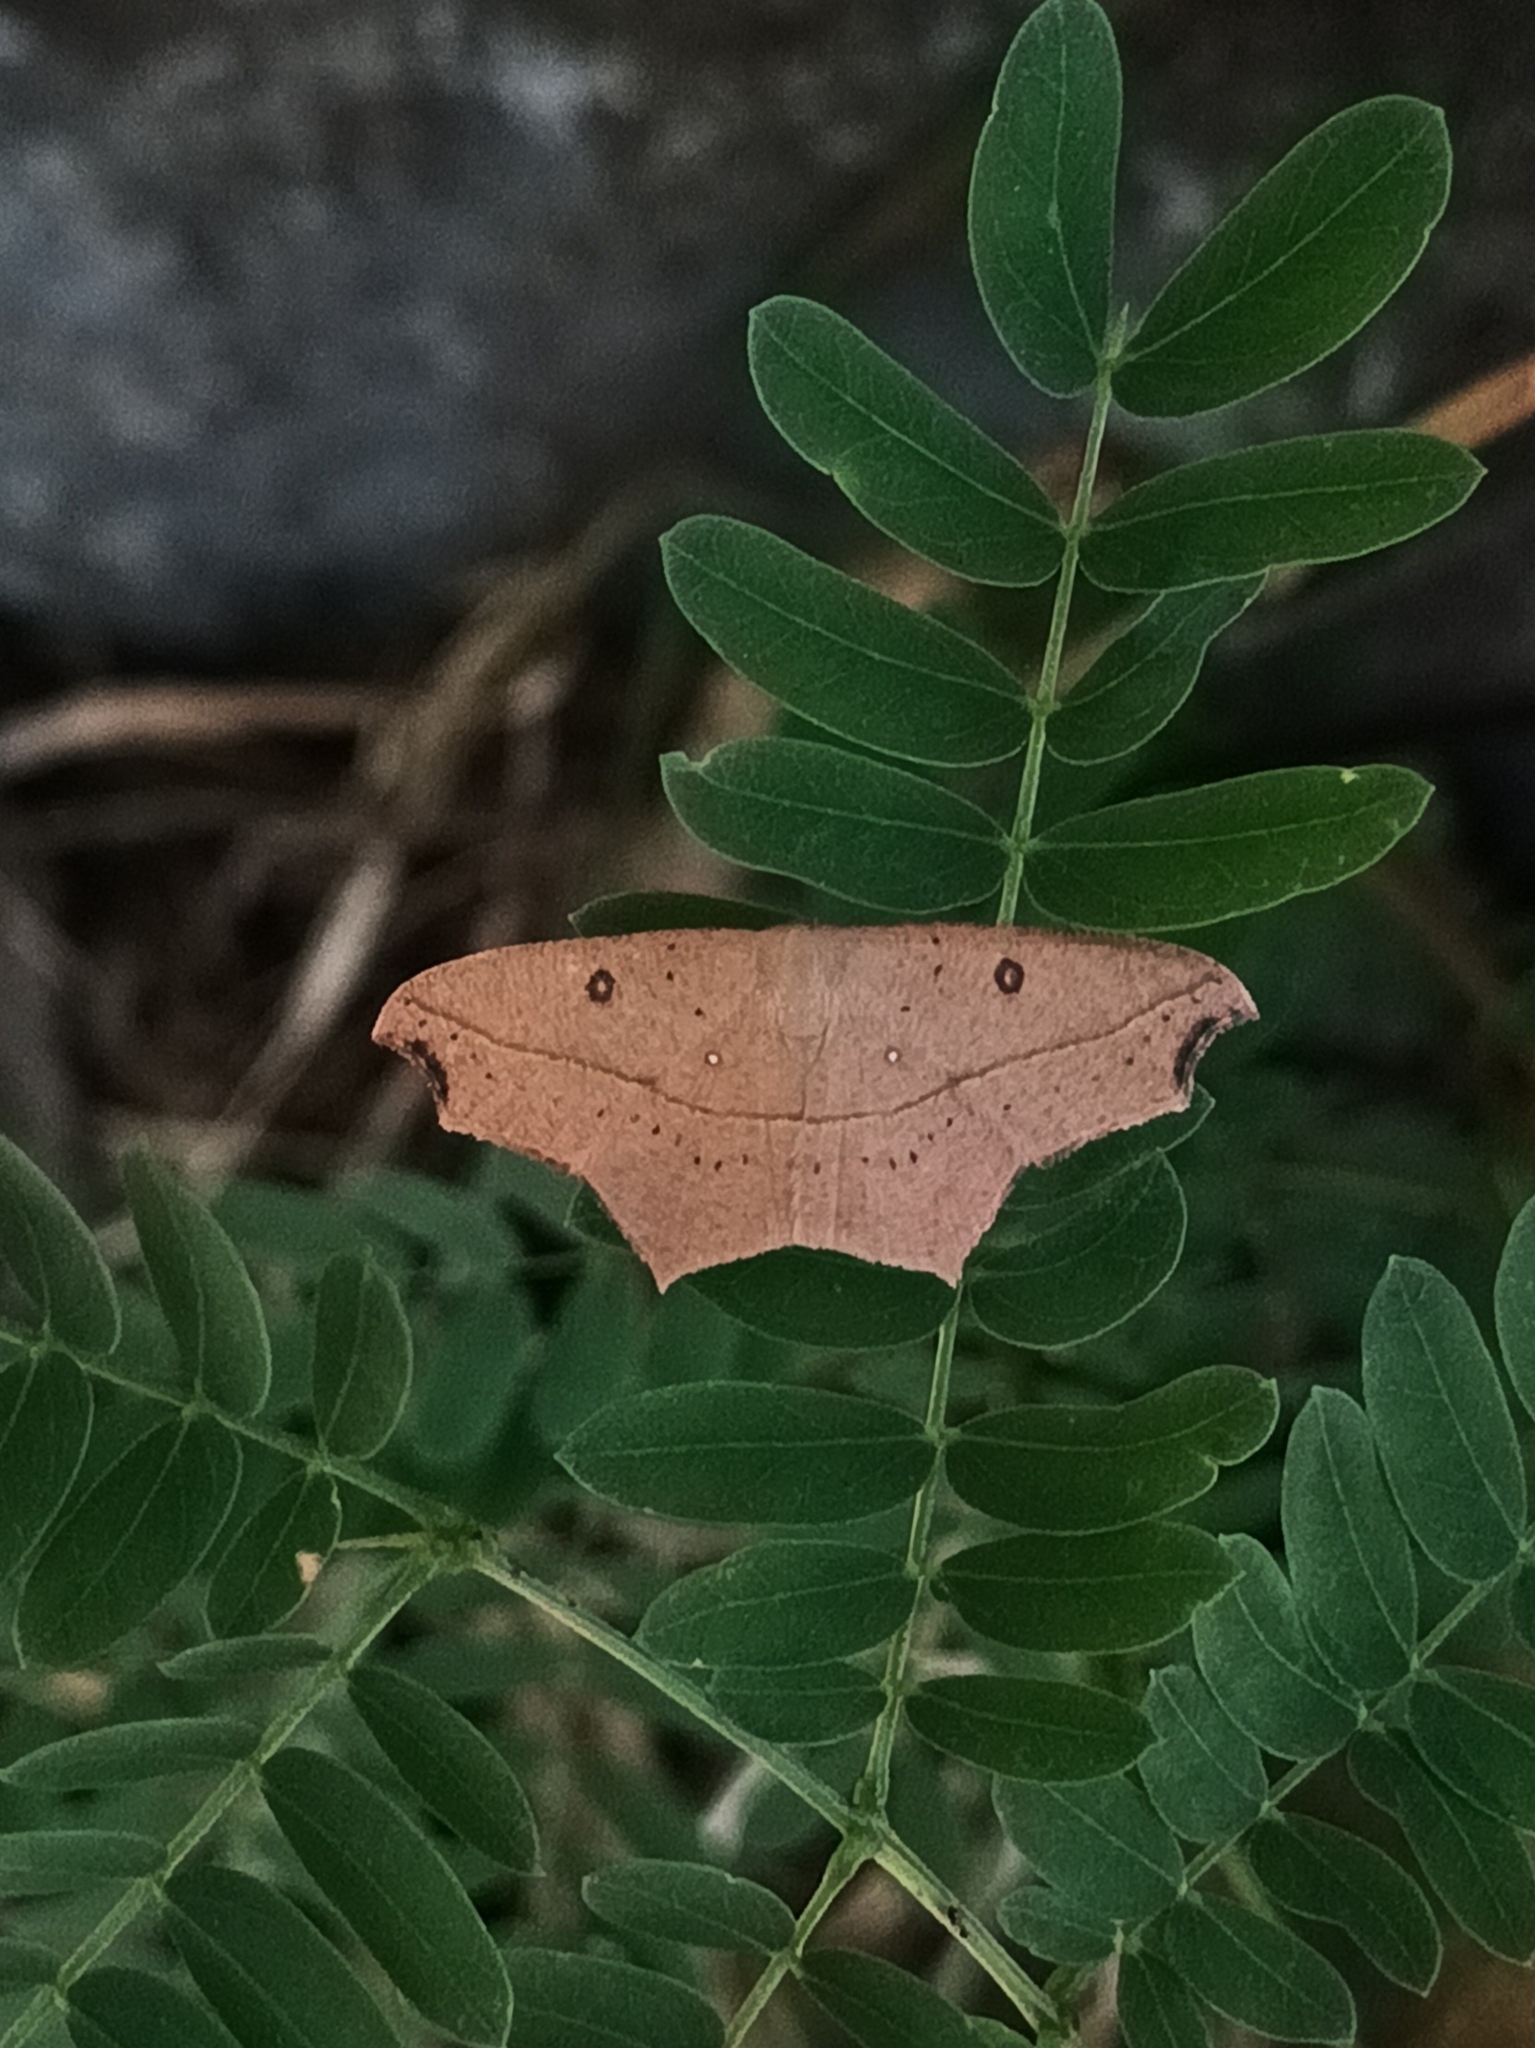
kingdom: Animalia
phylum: Arthropoda
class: Insecta
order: Lepidoptera
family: Geometridae
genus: Traminda
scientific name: Traminda aventiaria
